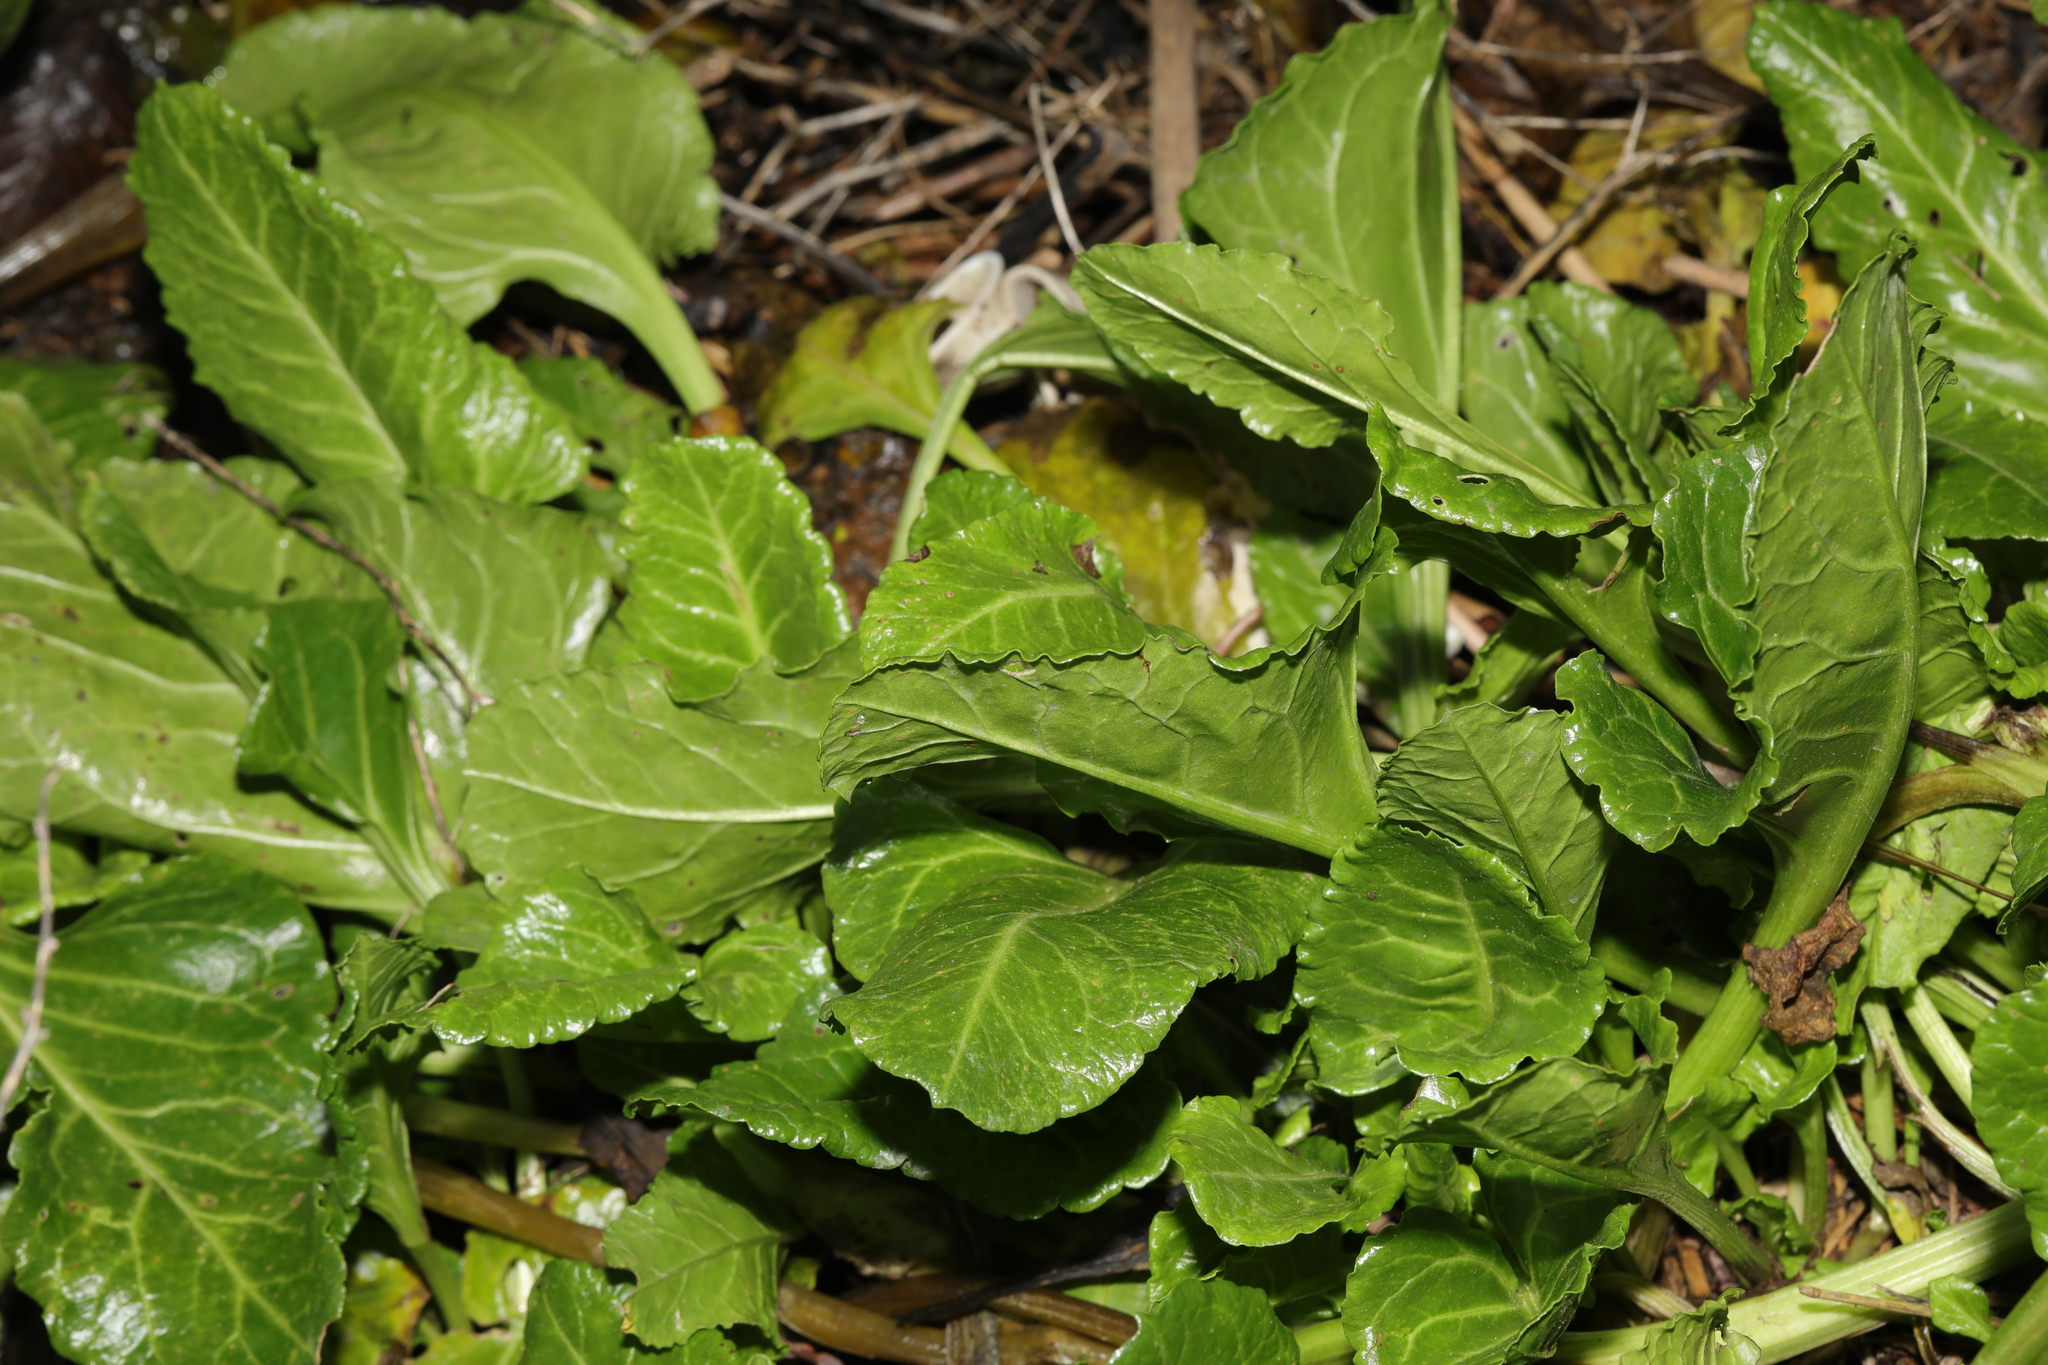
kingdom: Plantae
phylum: Tracheophyta
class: Magnoliopsida
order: Caryophyllales
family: Amaranthaceae
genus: Beta
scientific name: Beta vulgaris
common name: Beet
